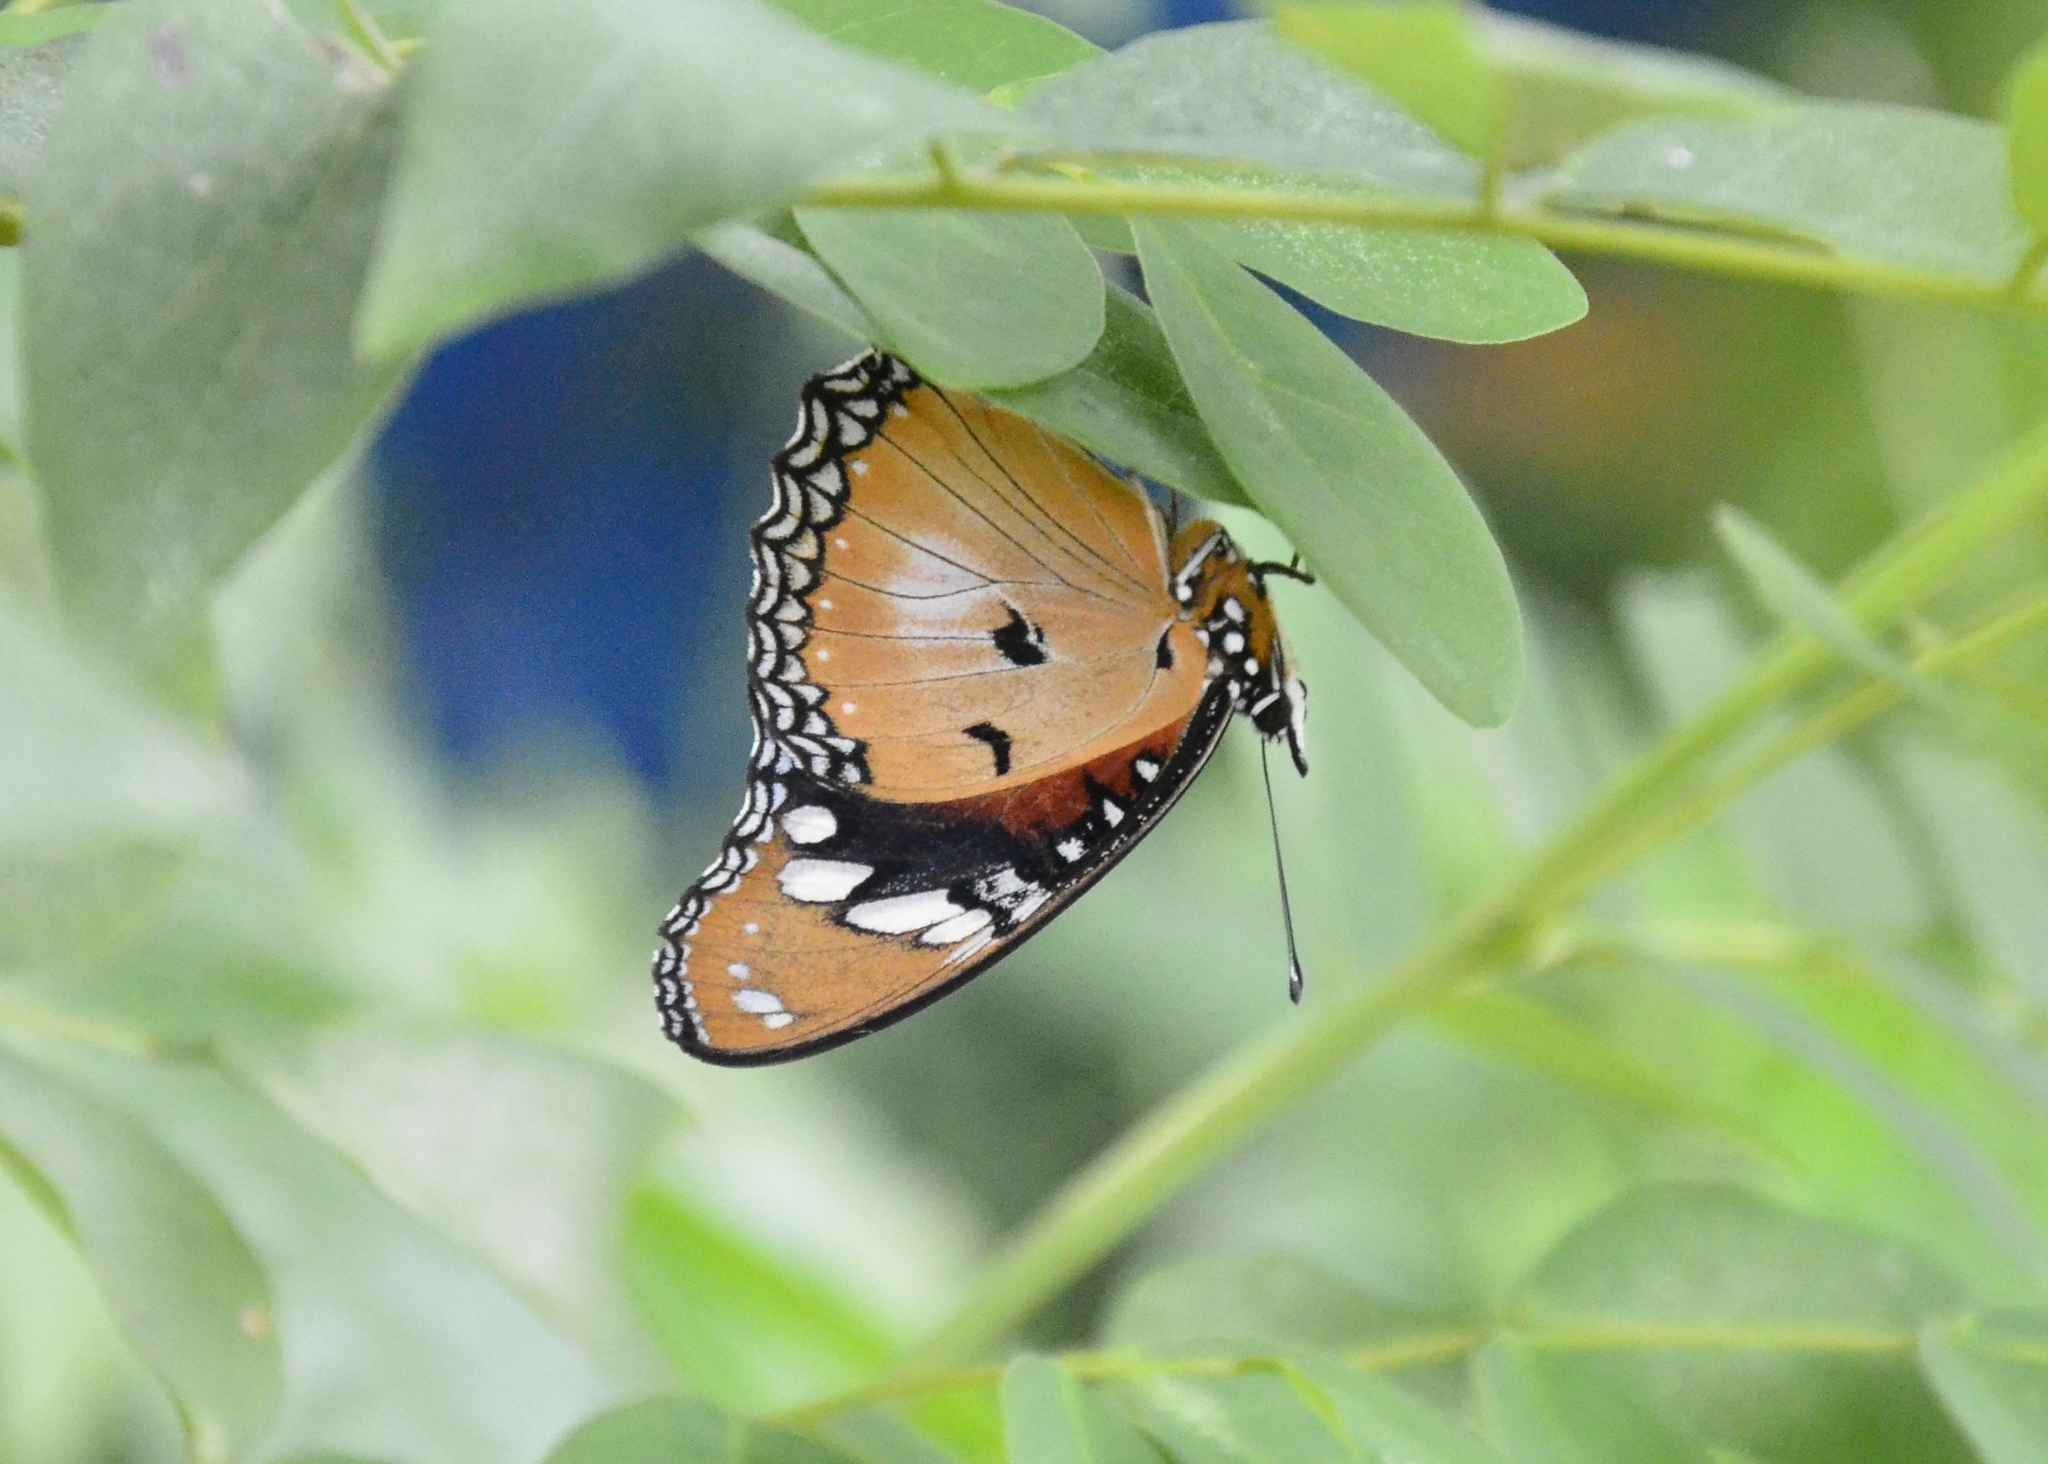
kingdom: Animalia
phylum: Arthropoda
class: Insecta
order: Lepidoptera
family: Nymphalidae
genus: Hypolimnas
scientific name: Hypolimnas misippus
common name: False plain tiger
